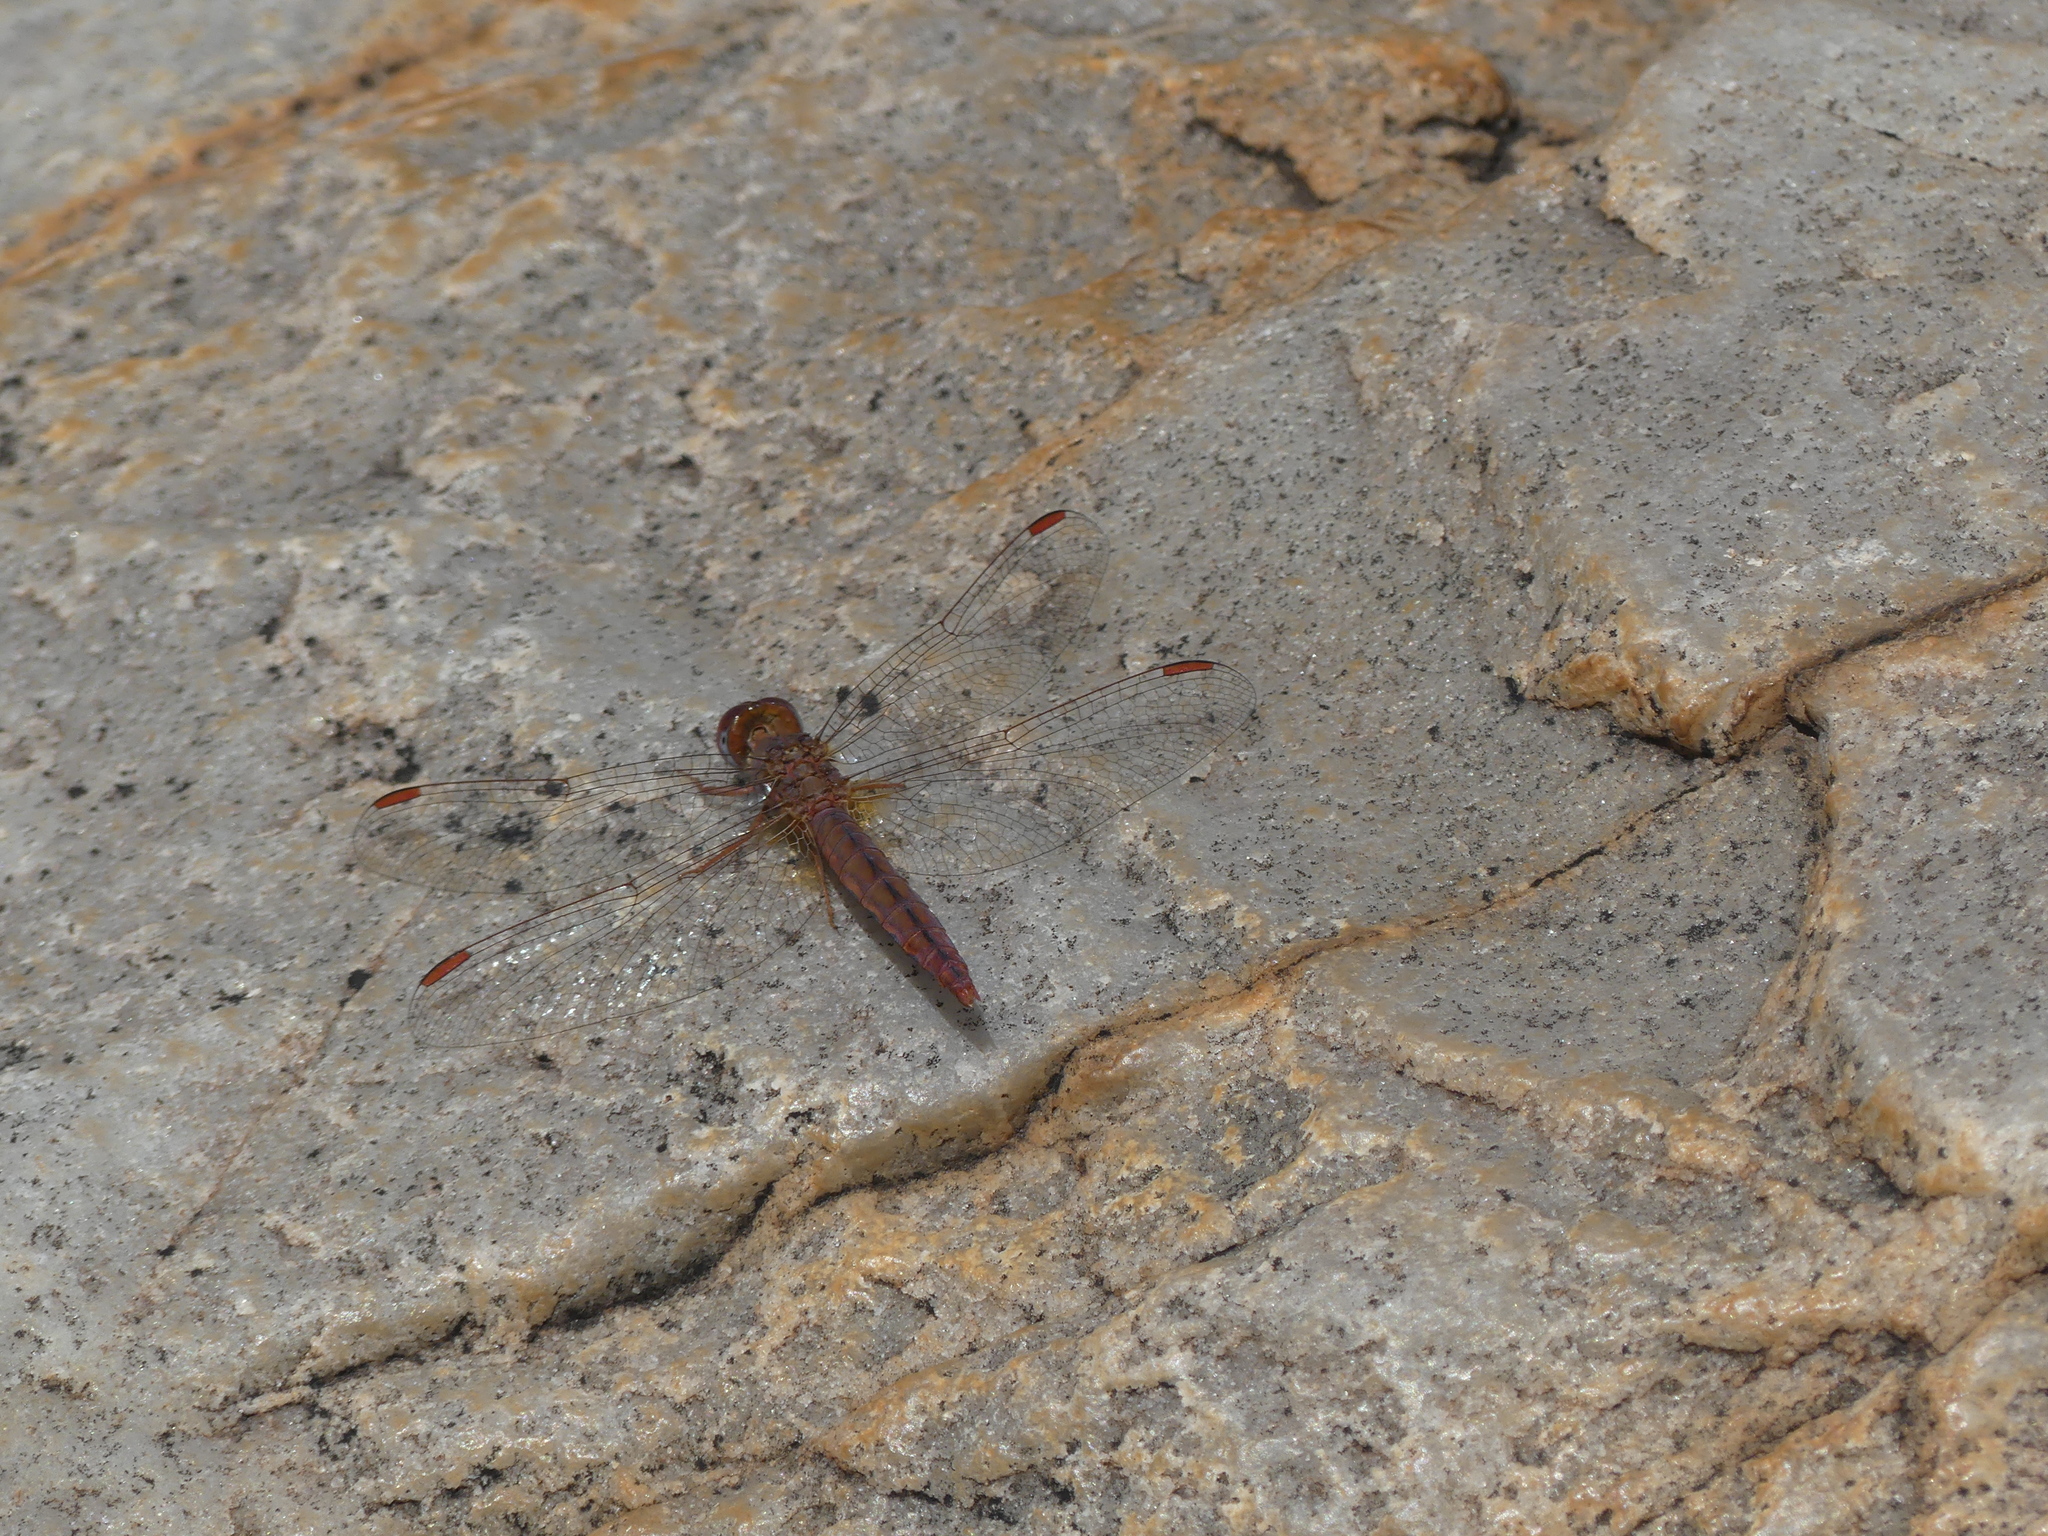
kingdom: Animalia
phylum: Arthropoda
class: Insecta
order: Odonata
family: Libellulidae
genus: Crocothemis
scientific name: Crocothemis sanguinolenta
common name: Little scarlet
